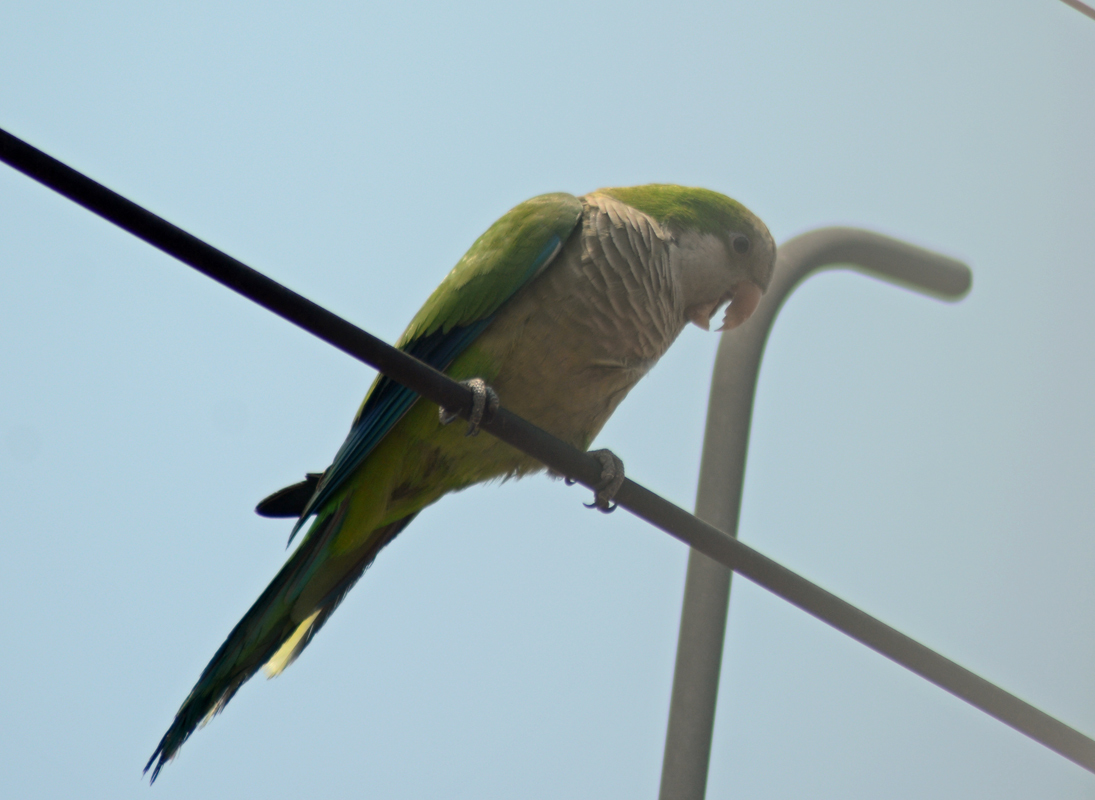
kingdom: Animalia
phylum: Chordata
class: Aves
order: Psittaciformes
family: Psittacidae
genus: Myiopsitta
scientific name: Myiopsitta monachus
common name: Monk parakeet
